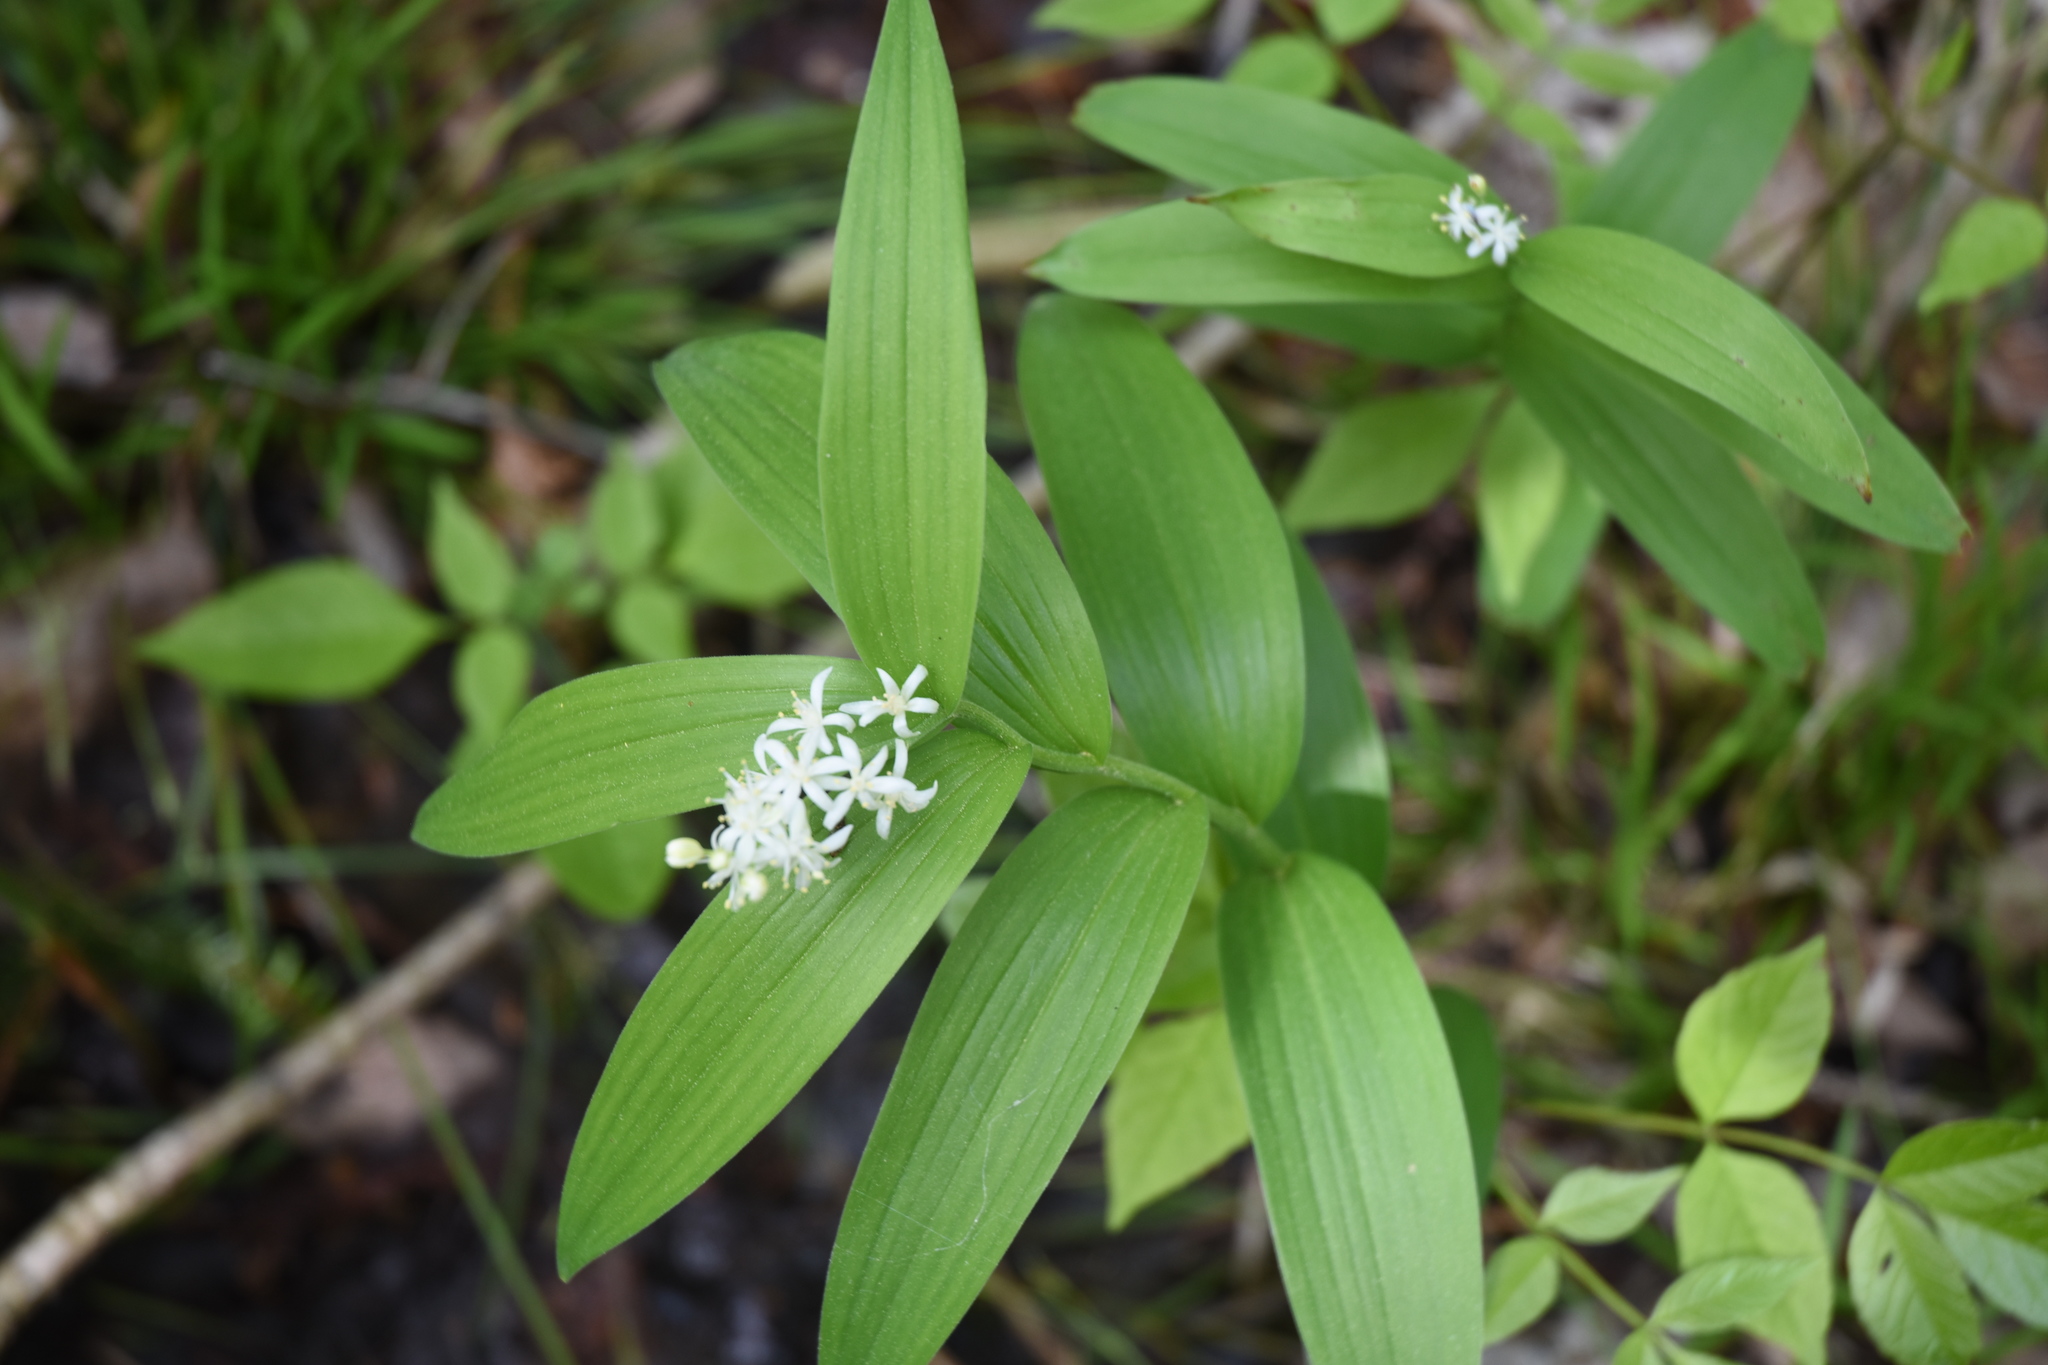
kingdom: Plantae
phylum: Tracheophyta
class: Liliopsida
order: Asparagales
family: Asparagaceae
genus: Maianthemum
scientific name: Maianthemum stellatum
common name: Little false solomon's seal
